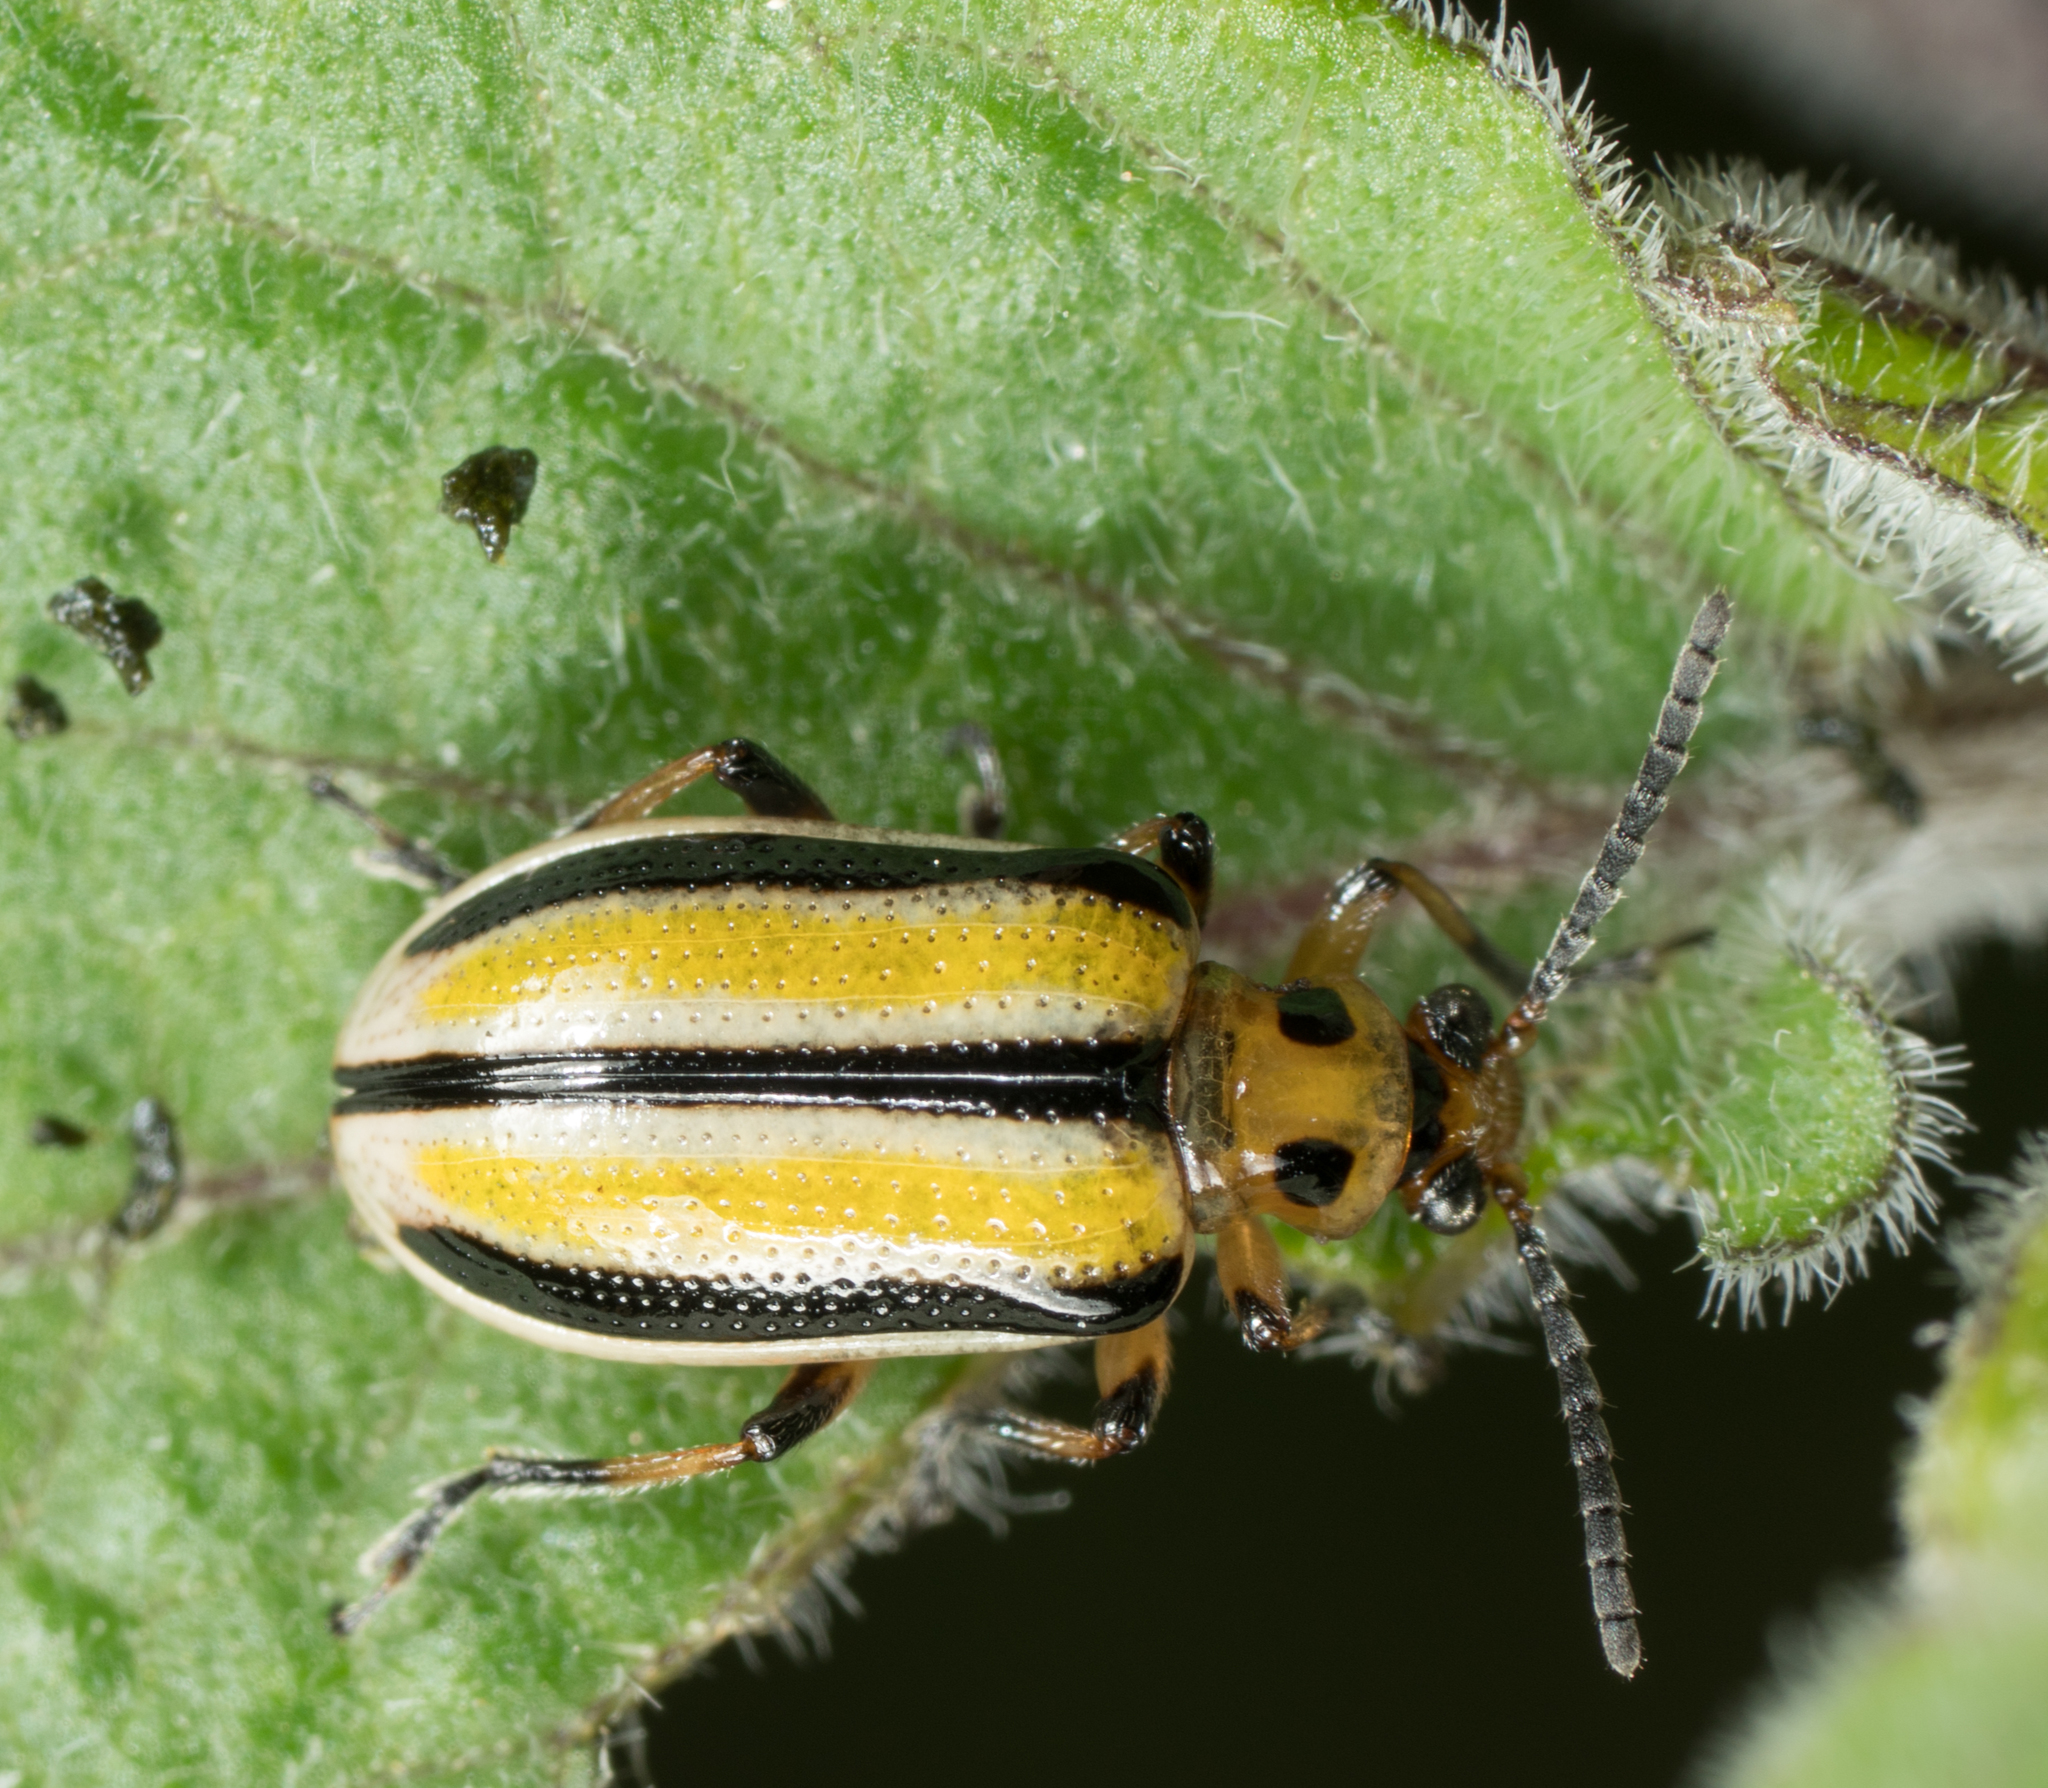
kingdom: Animalia
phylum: Arthropoda
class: Insecta
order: Coleoptera
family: Chrysomelidae
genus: Lema
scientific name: Lema daturaphila
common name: Leaf beetle
